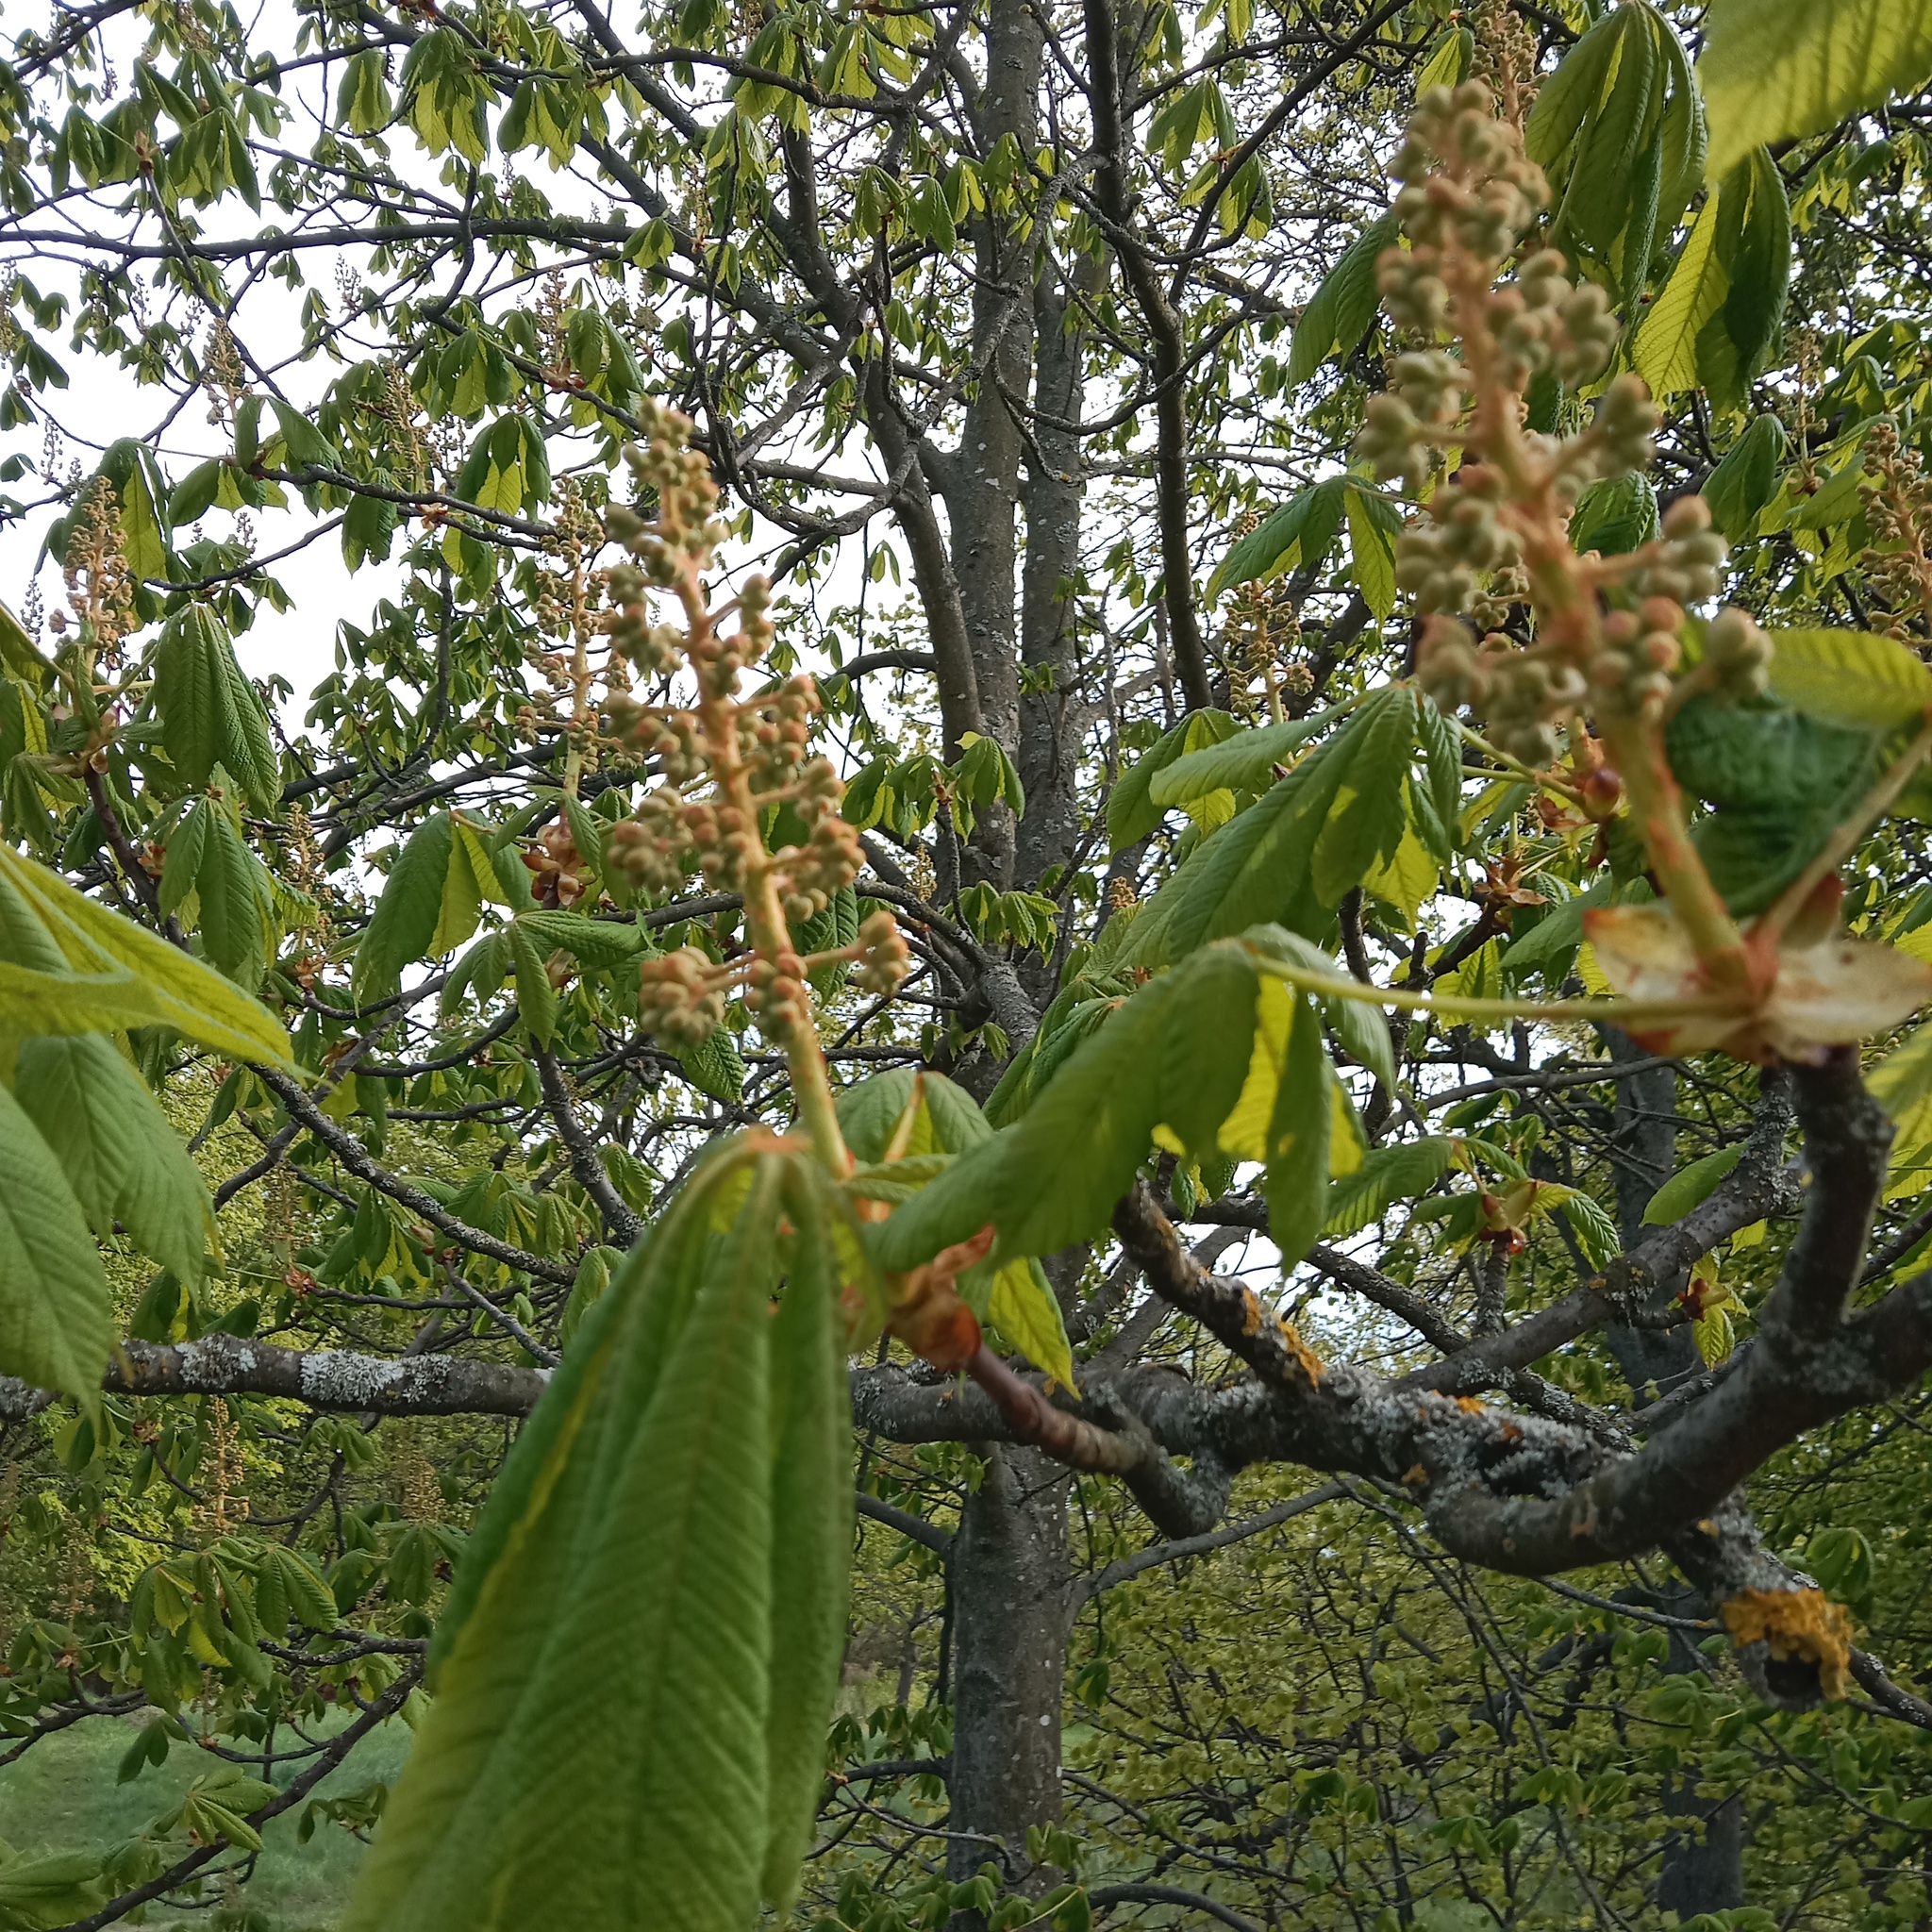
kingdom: Plantae
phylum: Tracheophyta
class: Magnoliopsida
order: Sapindales
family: Sapindaceae
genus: Aesculus
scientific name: Aesculus hippocastanum
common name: Horse-chestnut
